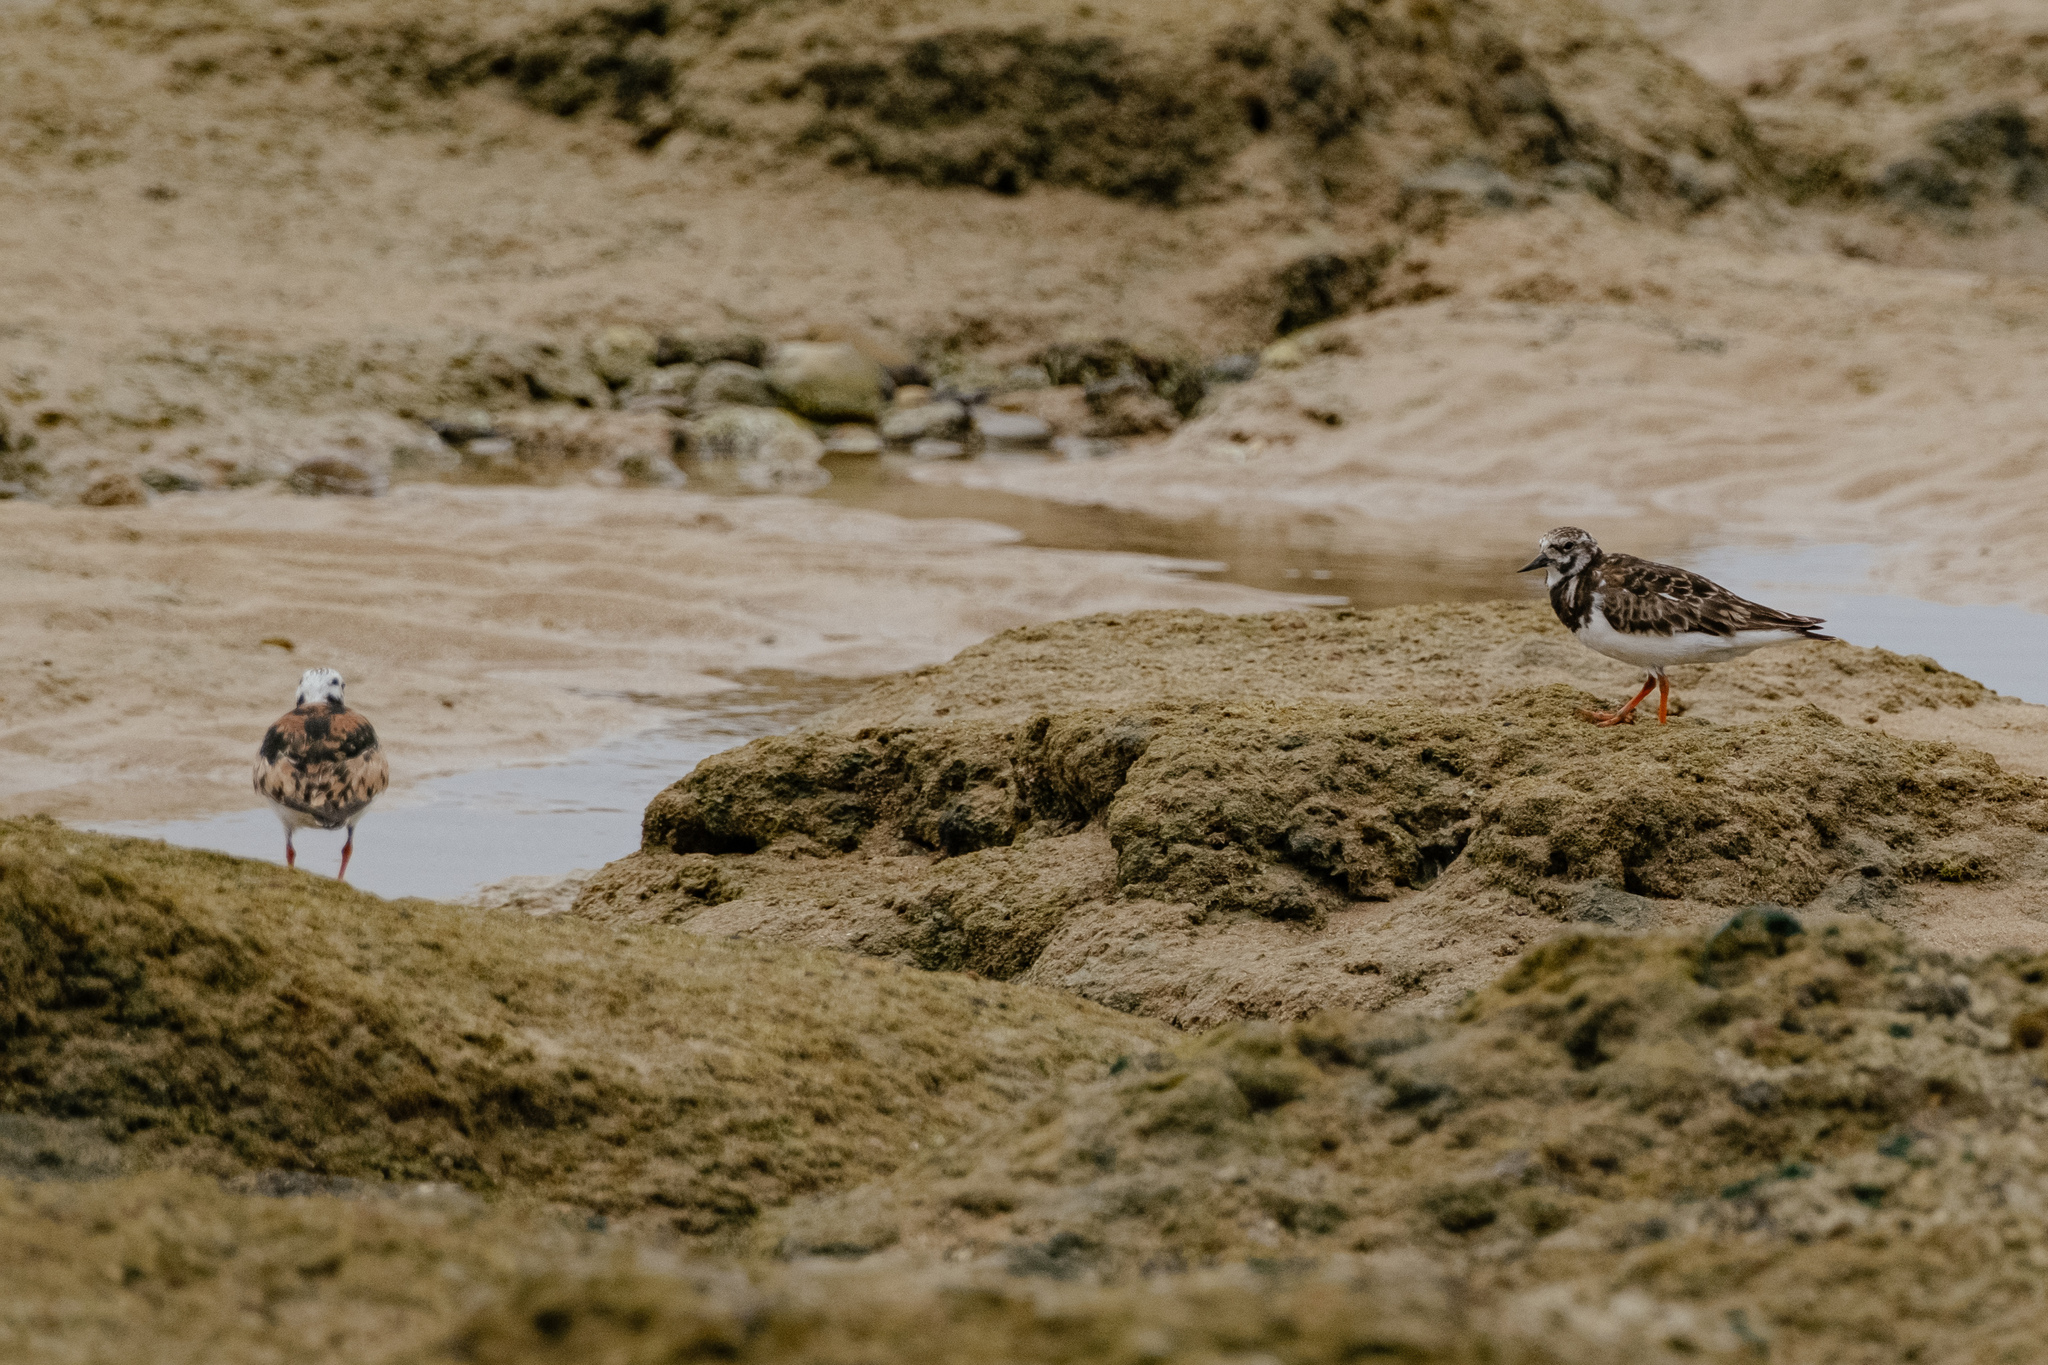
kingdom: Animalia
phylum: Chordata
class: Aves
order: Charadriiformes
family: Scolopacidae
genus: Arenaria
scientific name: Arenaria interpres
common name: Ruddy turnstone
